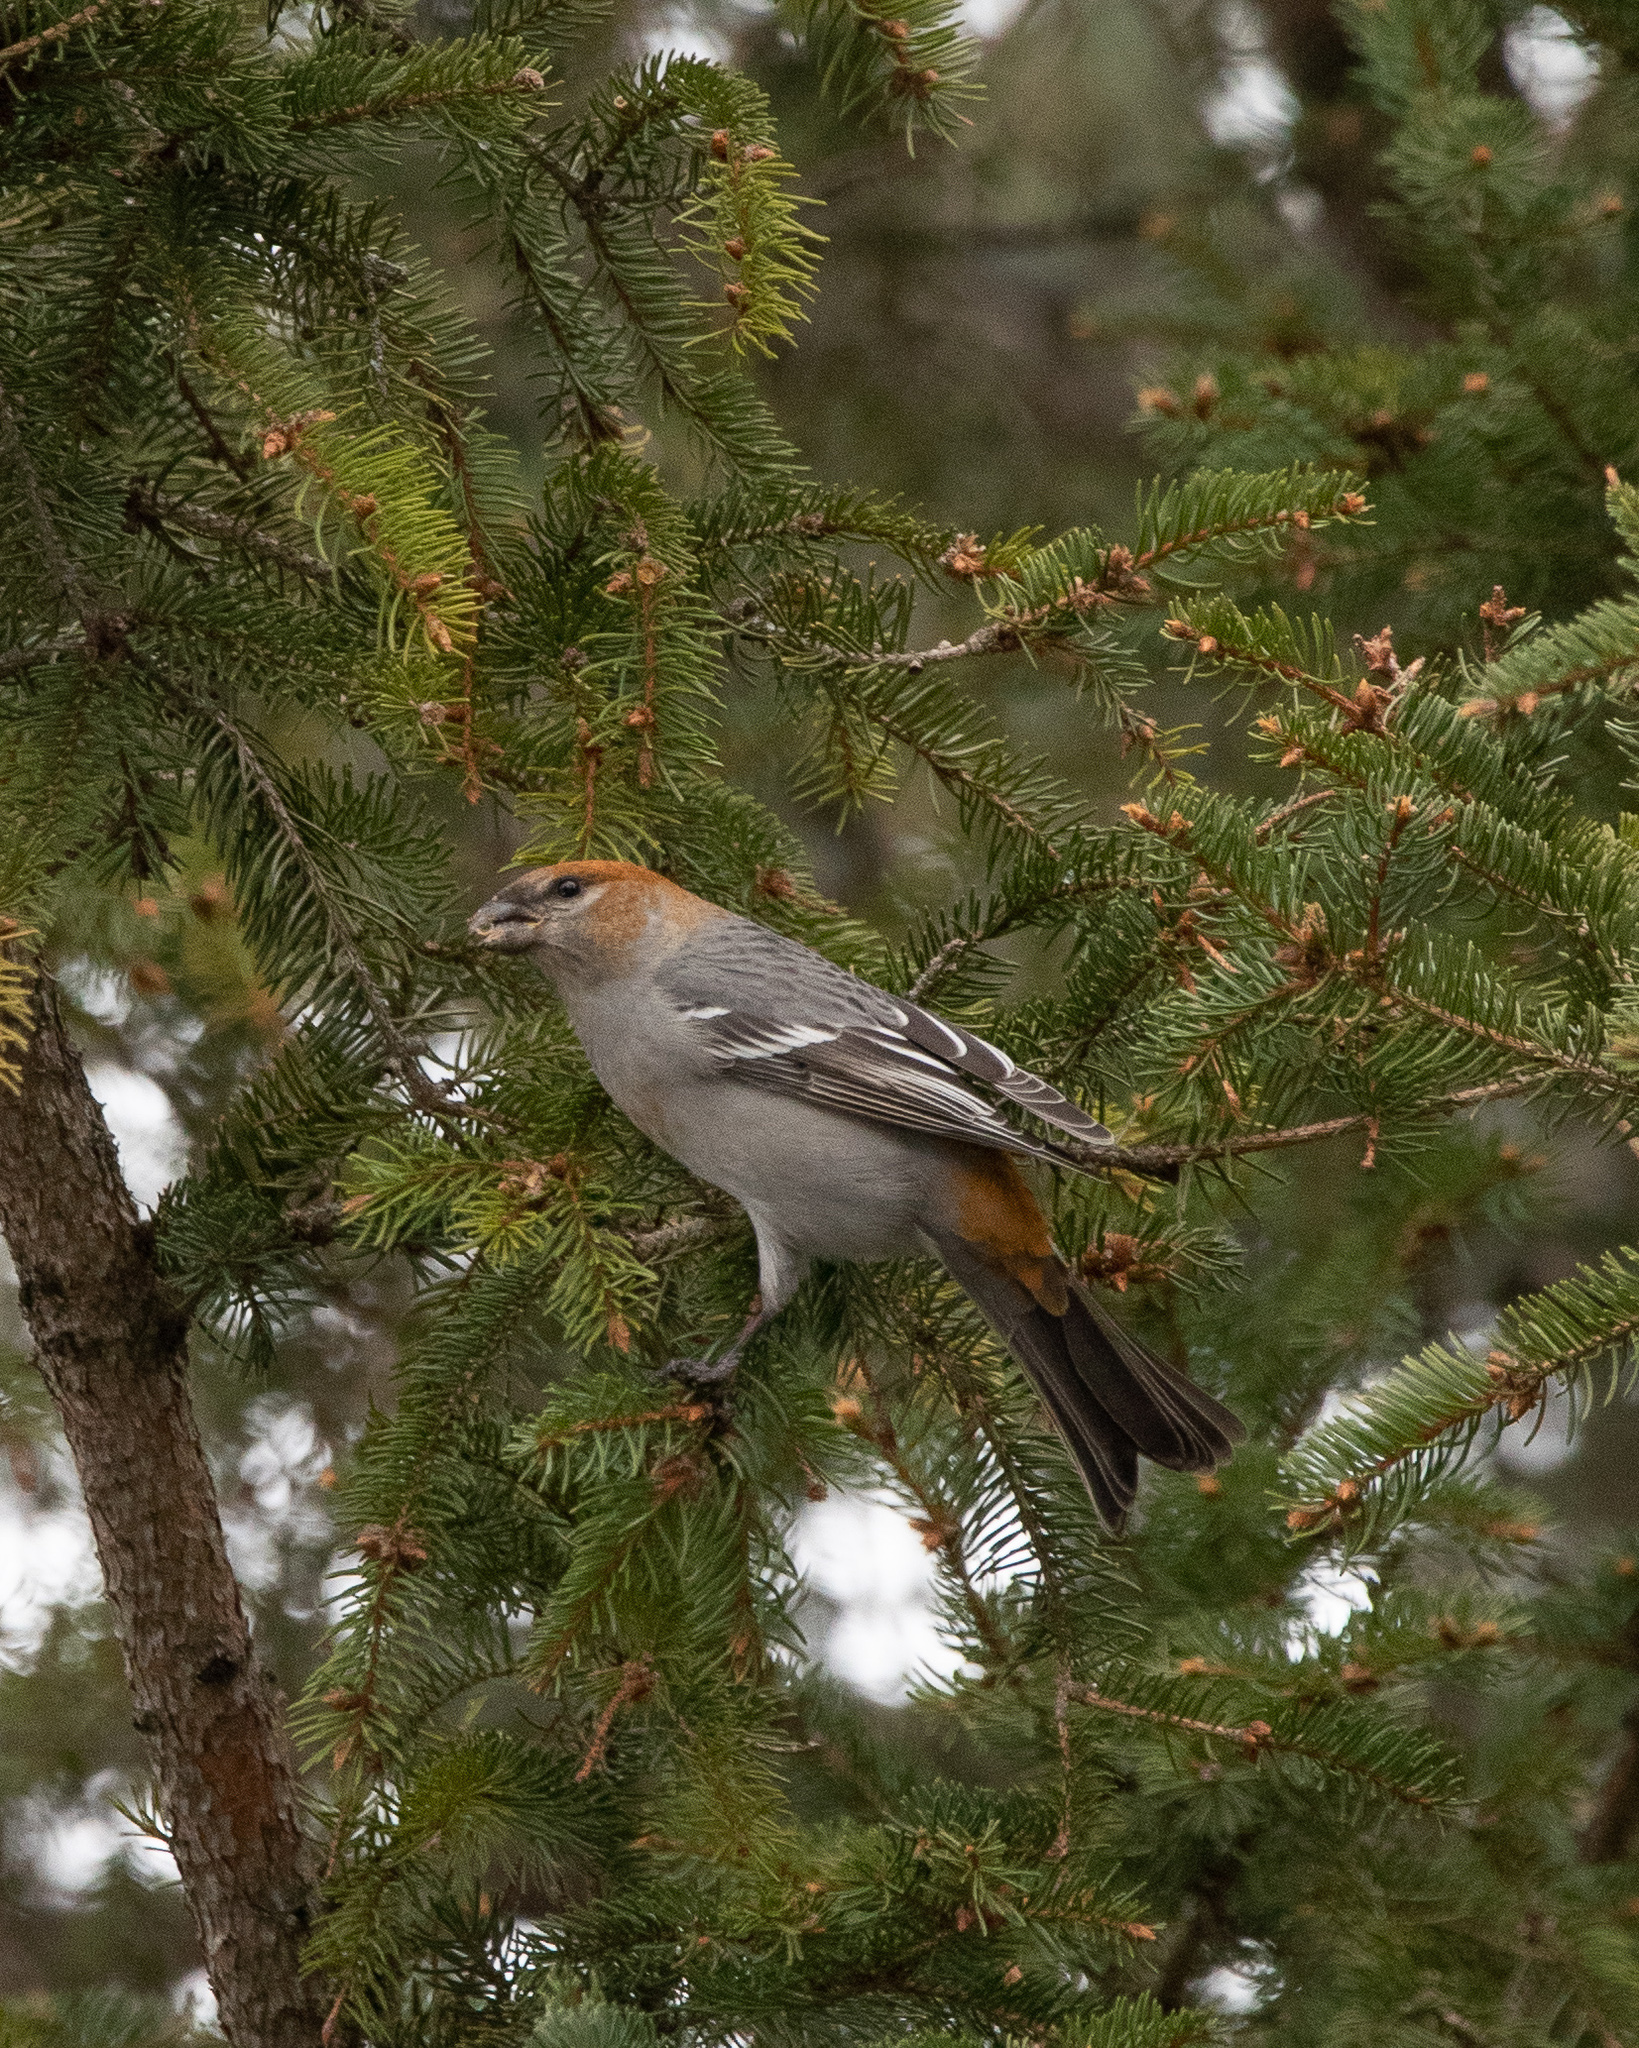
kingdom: Animalia
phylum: Chordata
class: Aves
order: Passeriformes
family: Fringillidae
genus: Pinicola
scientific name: Pinicola enucleator
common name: Pine grosbeak
